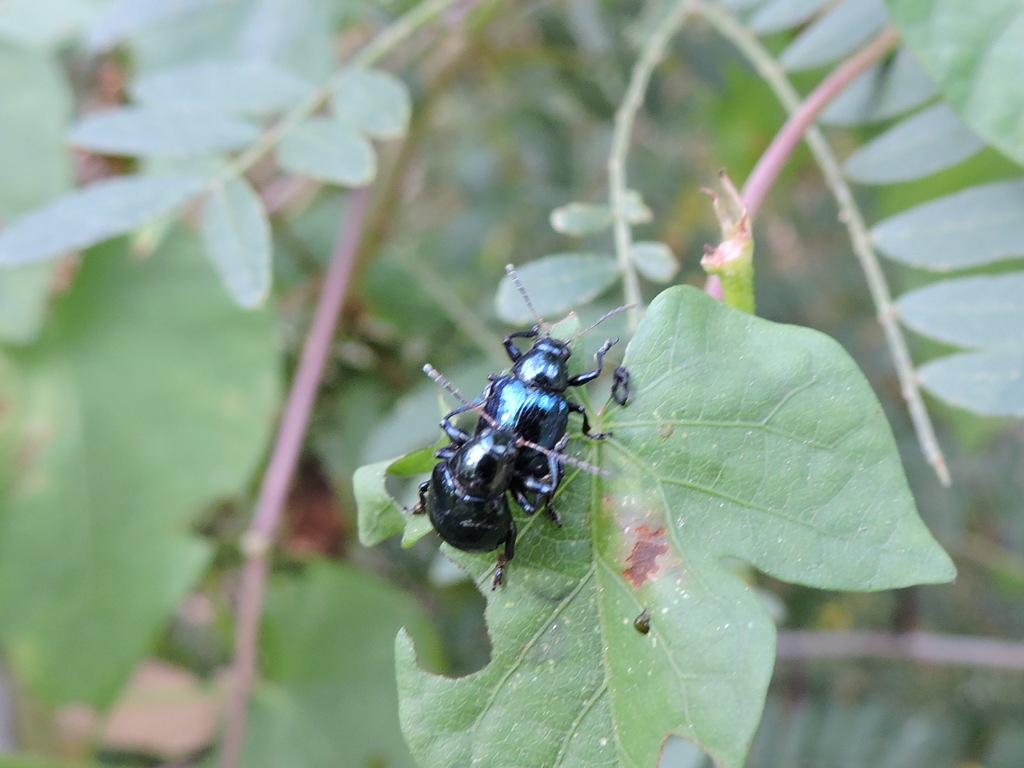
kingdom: Animalia
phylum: Arthropoda
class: Insecta
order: Coleoptera
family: Chrysomelidae
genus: Typophorus
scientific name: Typophorus nigritus
